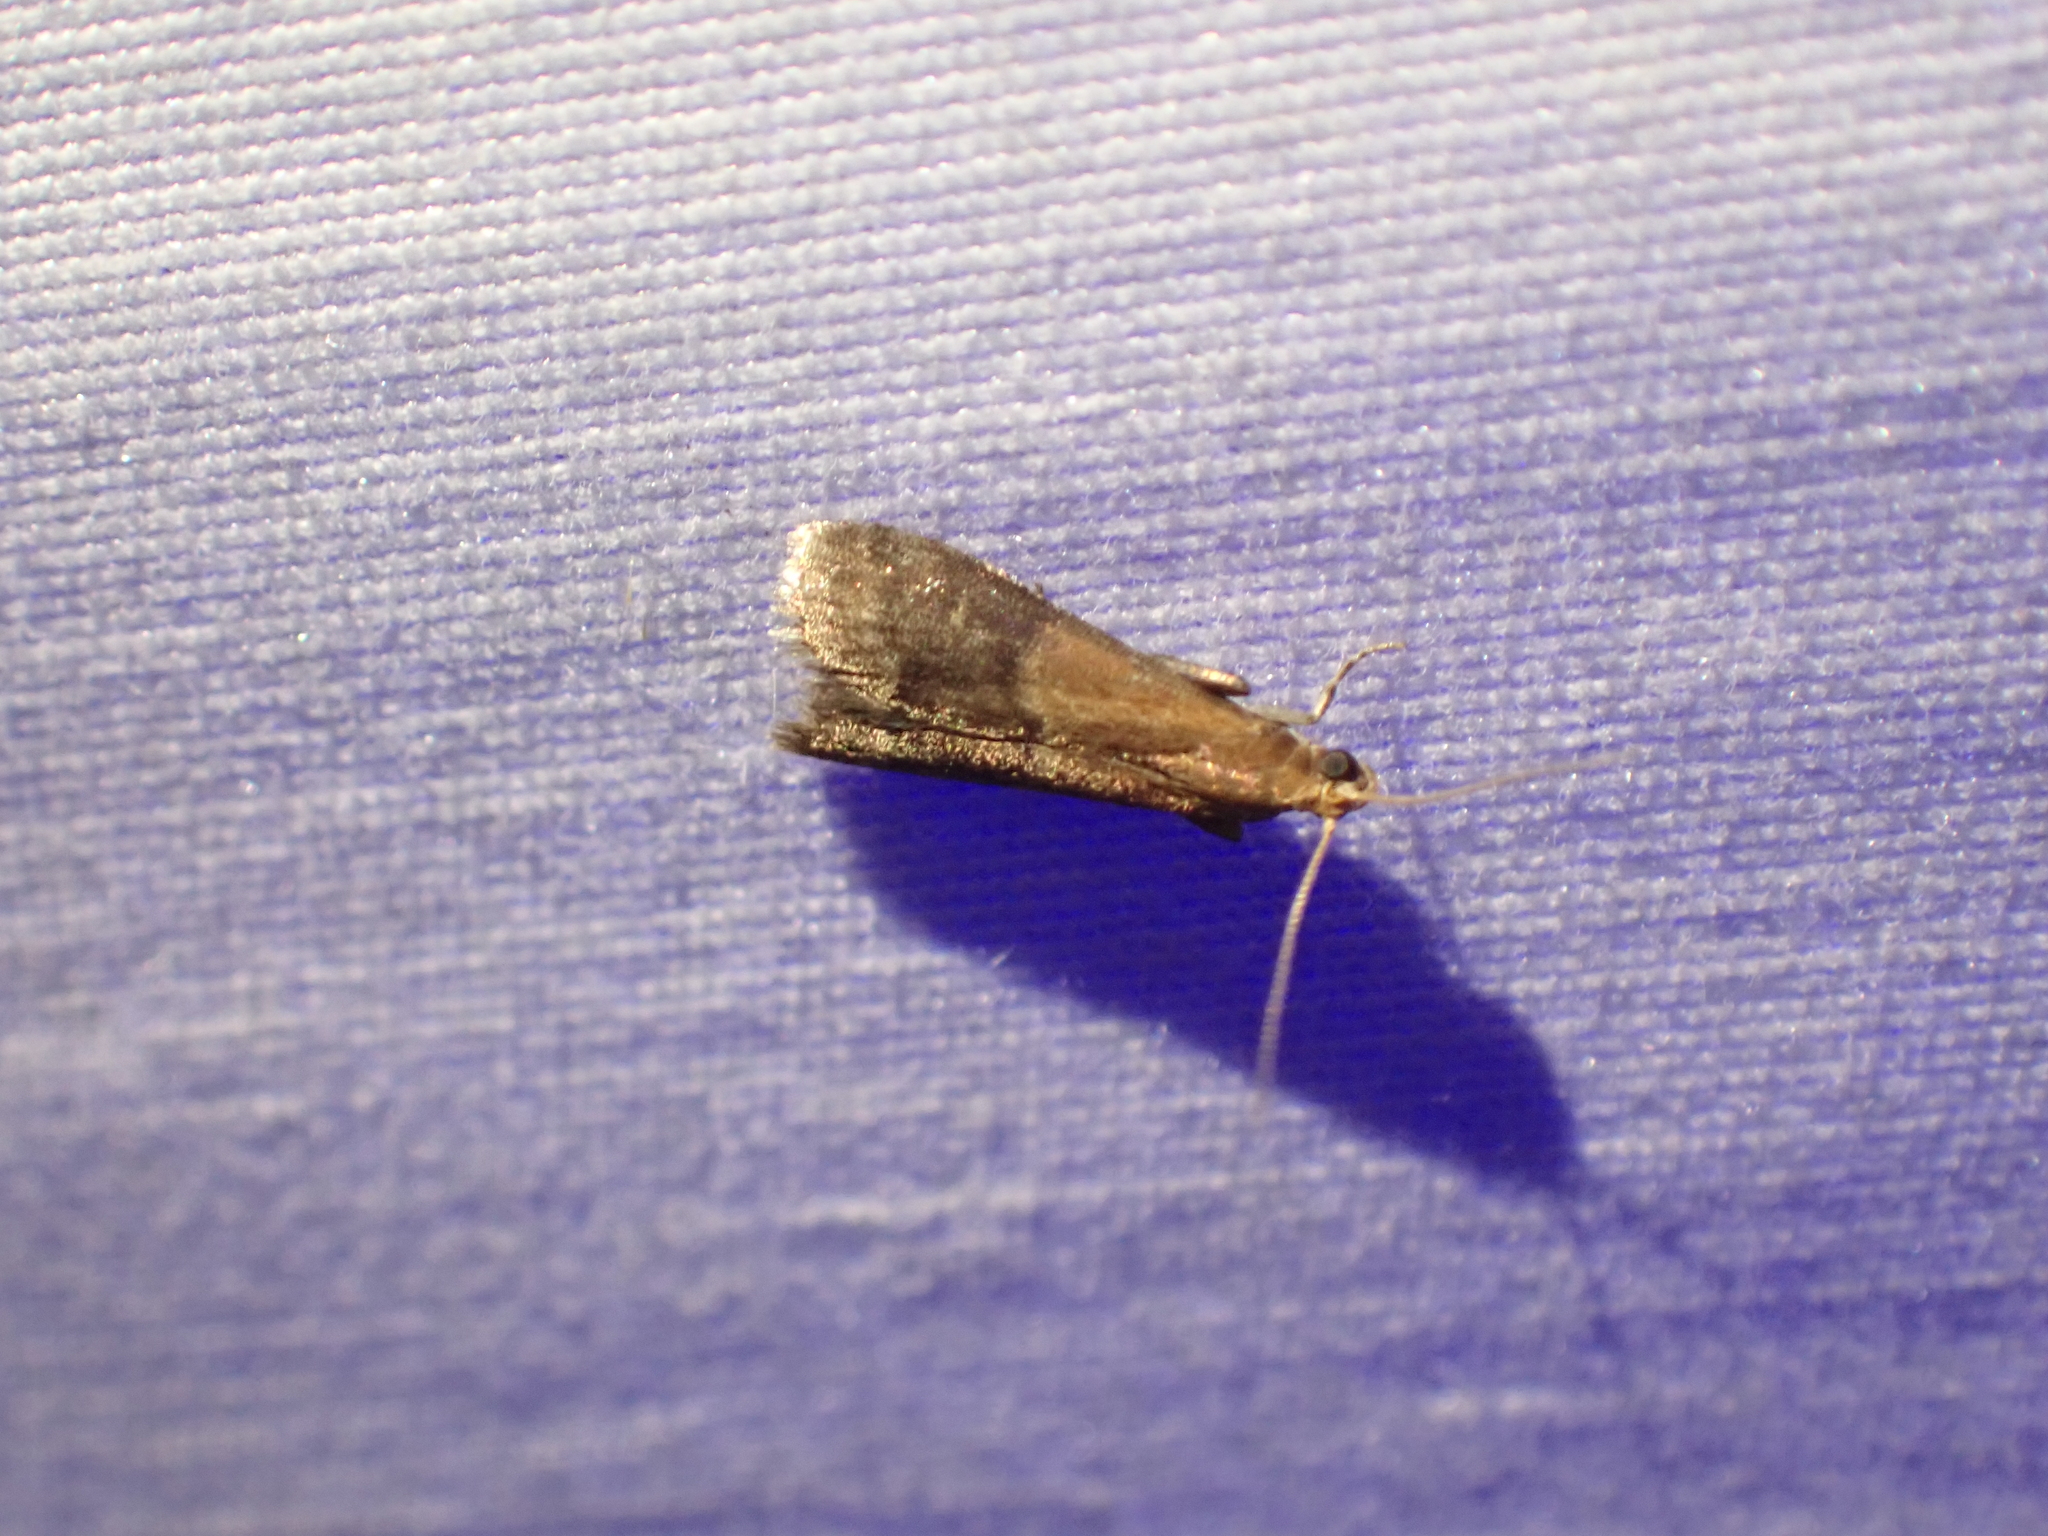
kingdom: Animalia
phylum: Arthropoda
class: Insecta
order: Lepidoptera
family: Pyralidae
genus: Eulogia
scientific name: Eulogia ochrifrontella
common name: Broad-banded eulogia moth
